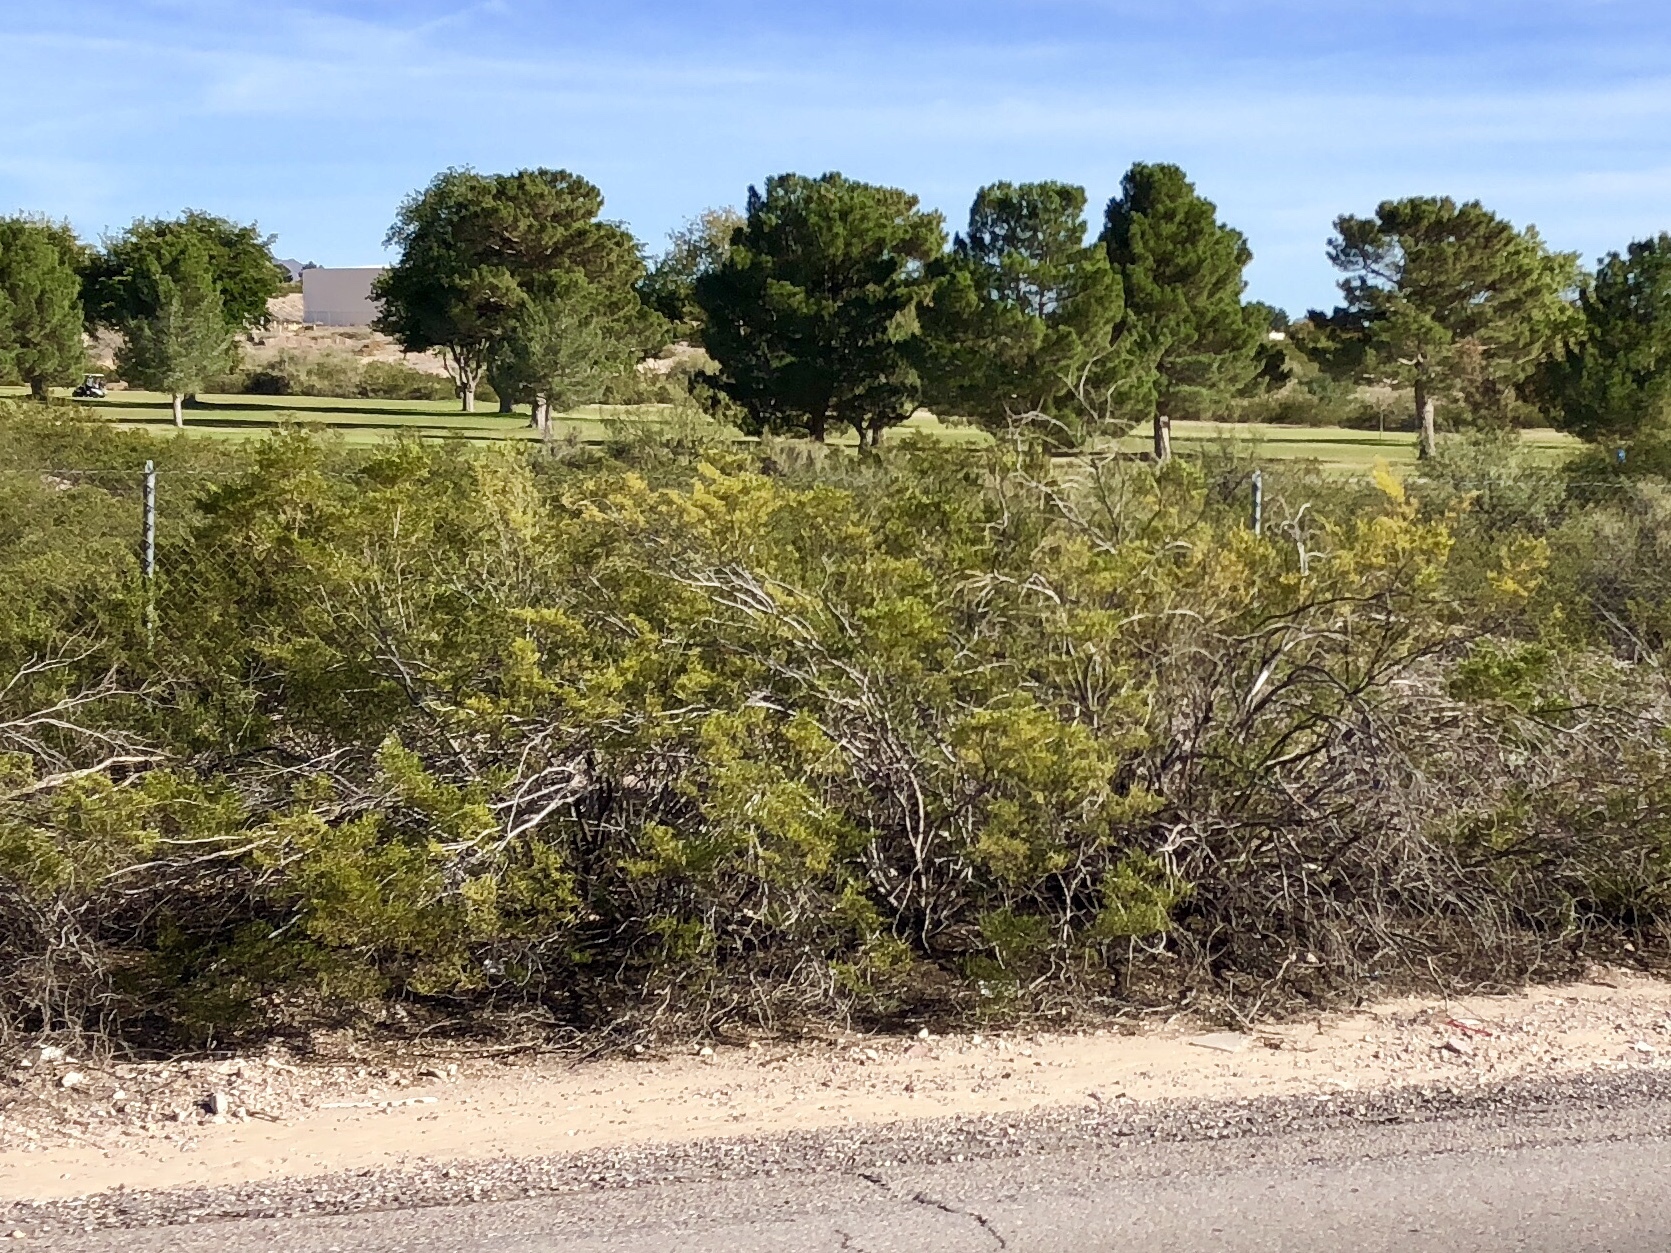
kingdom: Plantae
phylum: Tracheophyta
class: Magnoliopsida
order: Zygophyllales
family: Zygophyllaceae
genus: Larrea
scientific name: Larrea tridentata
